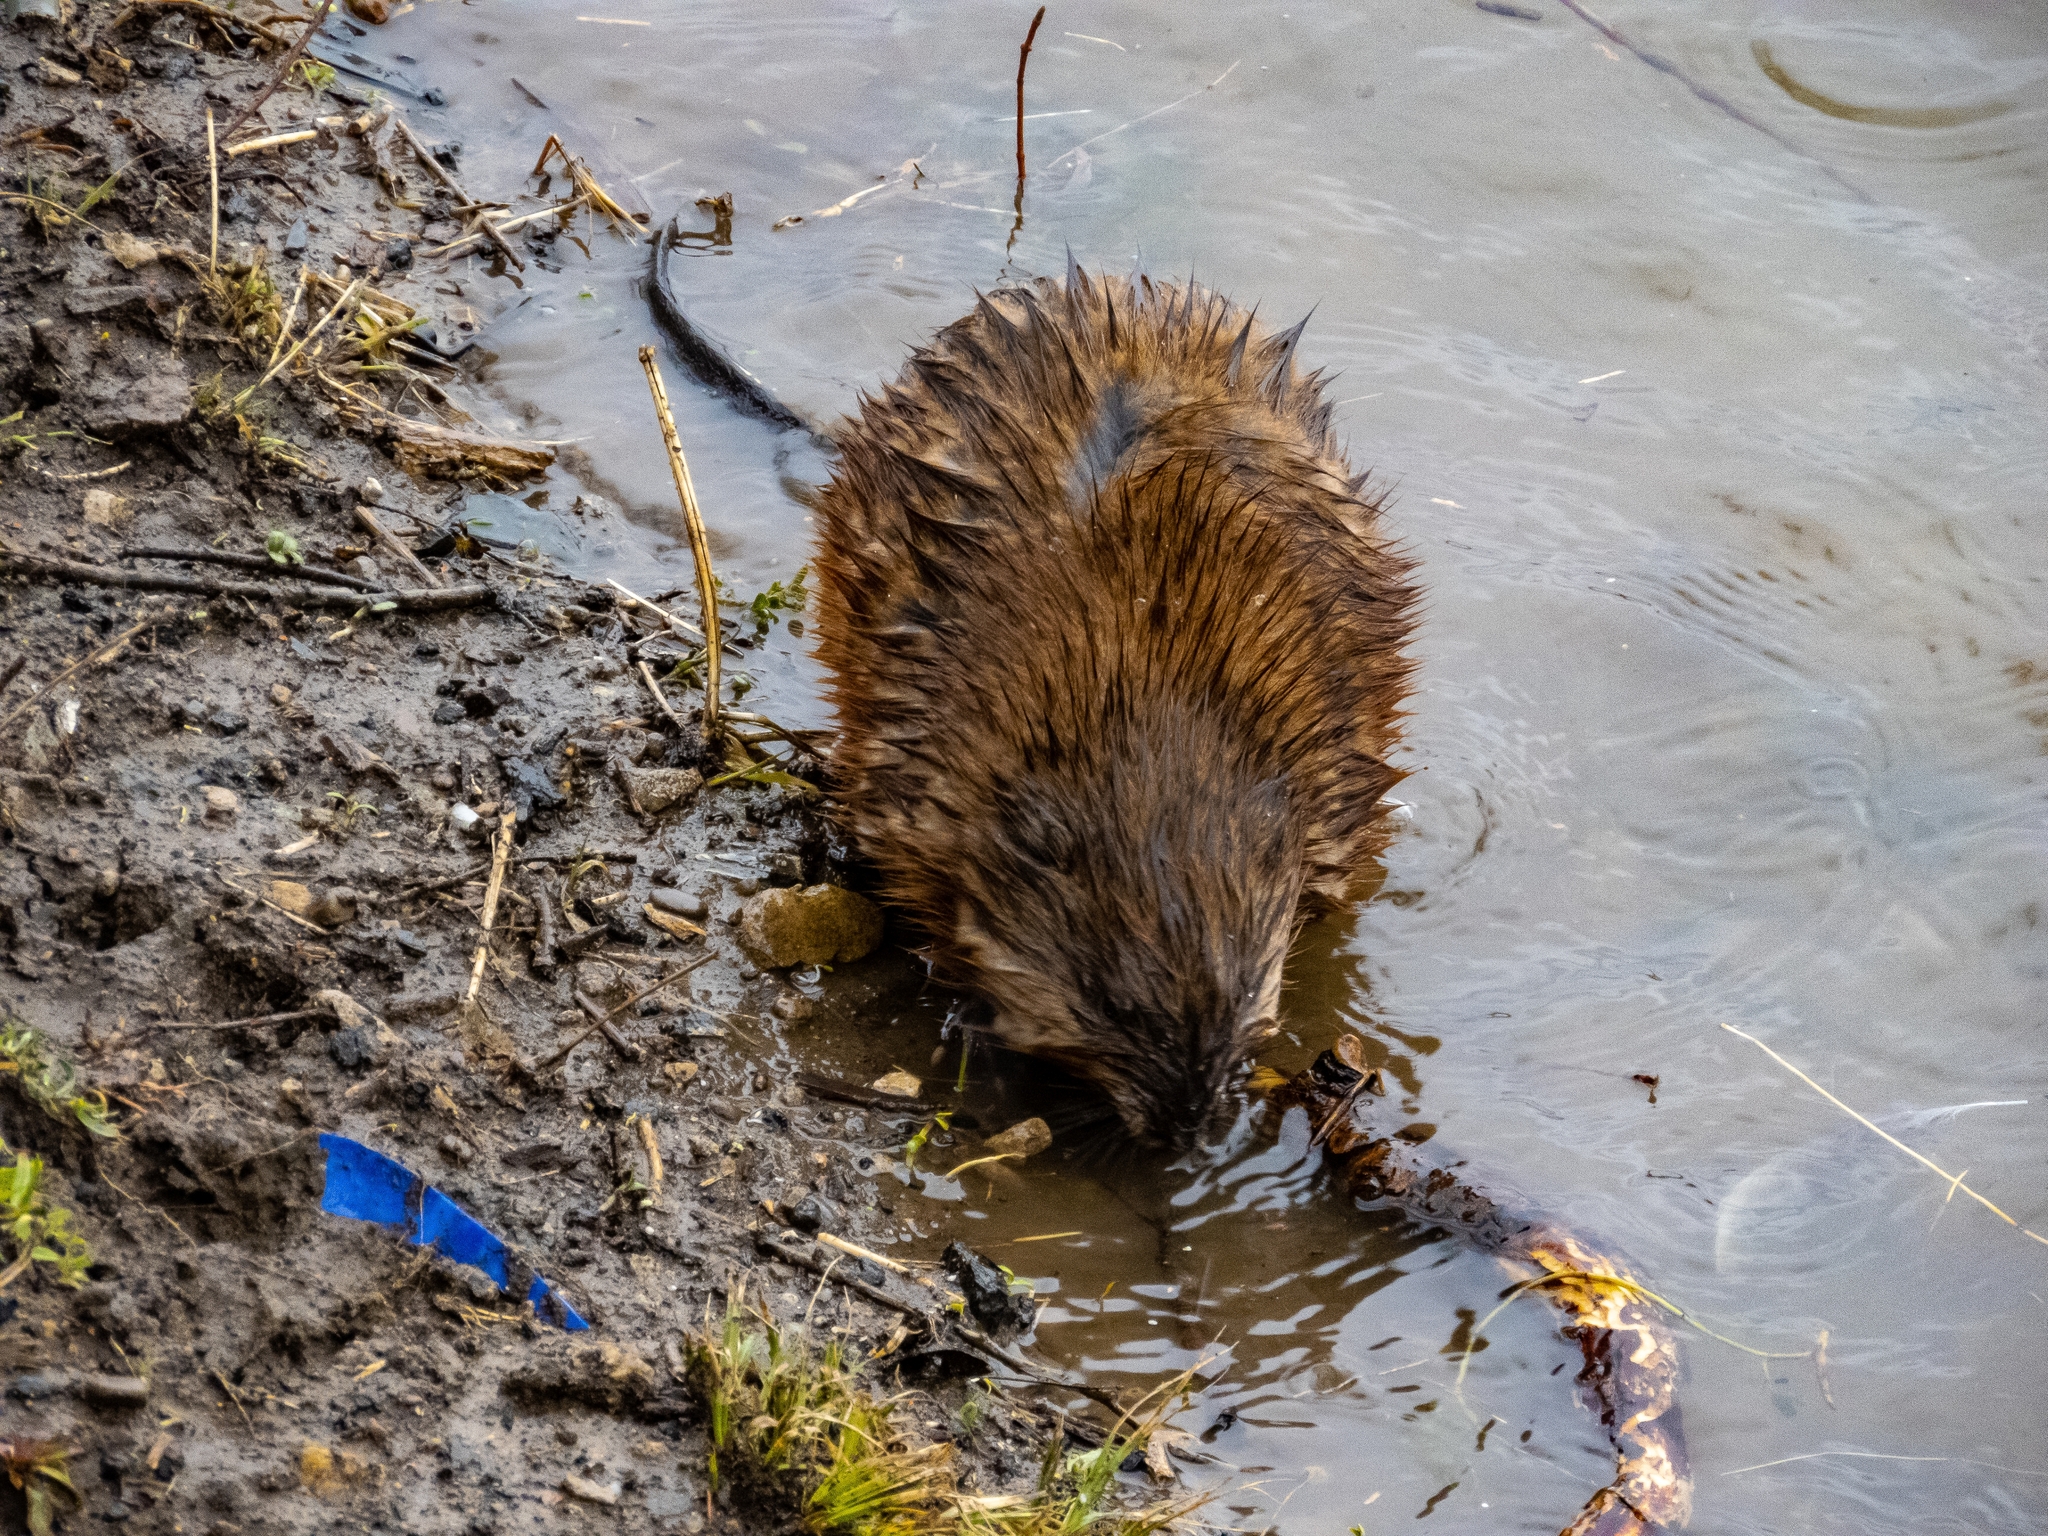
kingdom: Animalia
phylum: Chordata
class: Mammalia
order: Rodentia
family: Cricetidae
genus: Ondatra
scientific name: Ondatra zibethicus
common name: Muskrat
